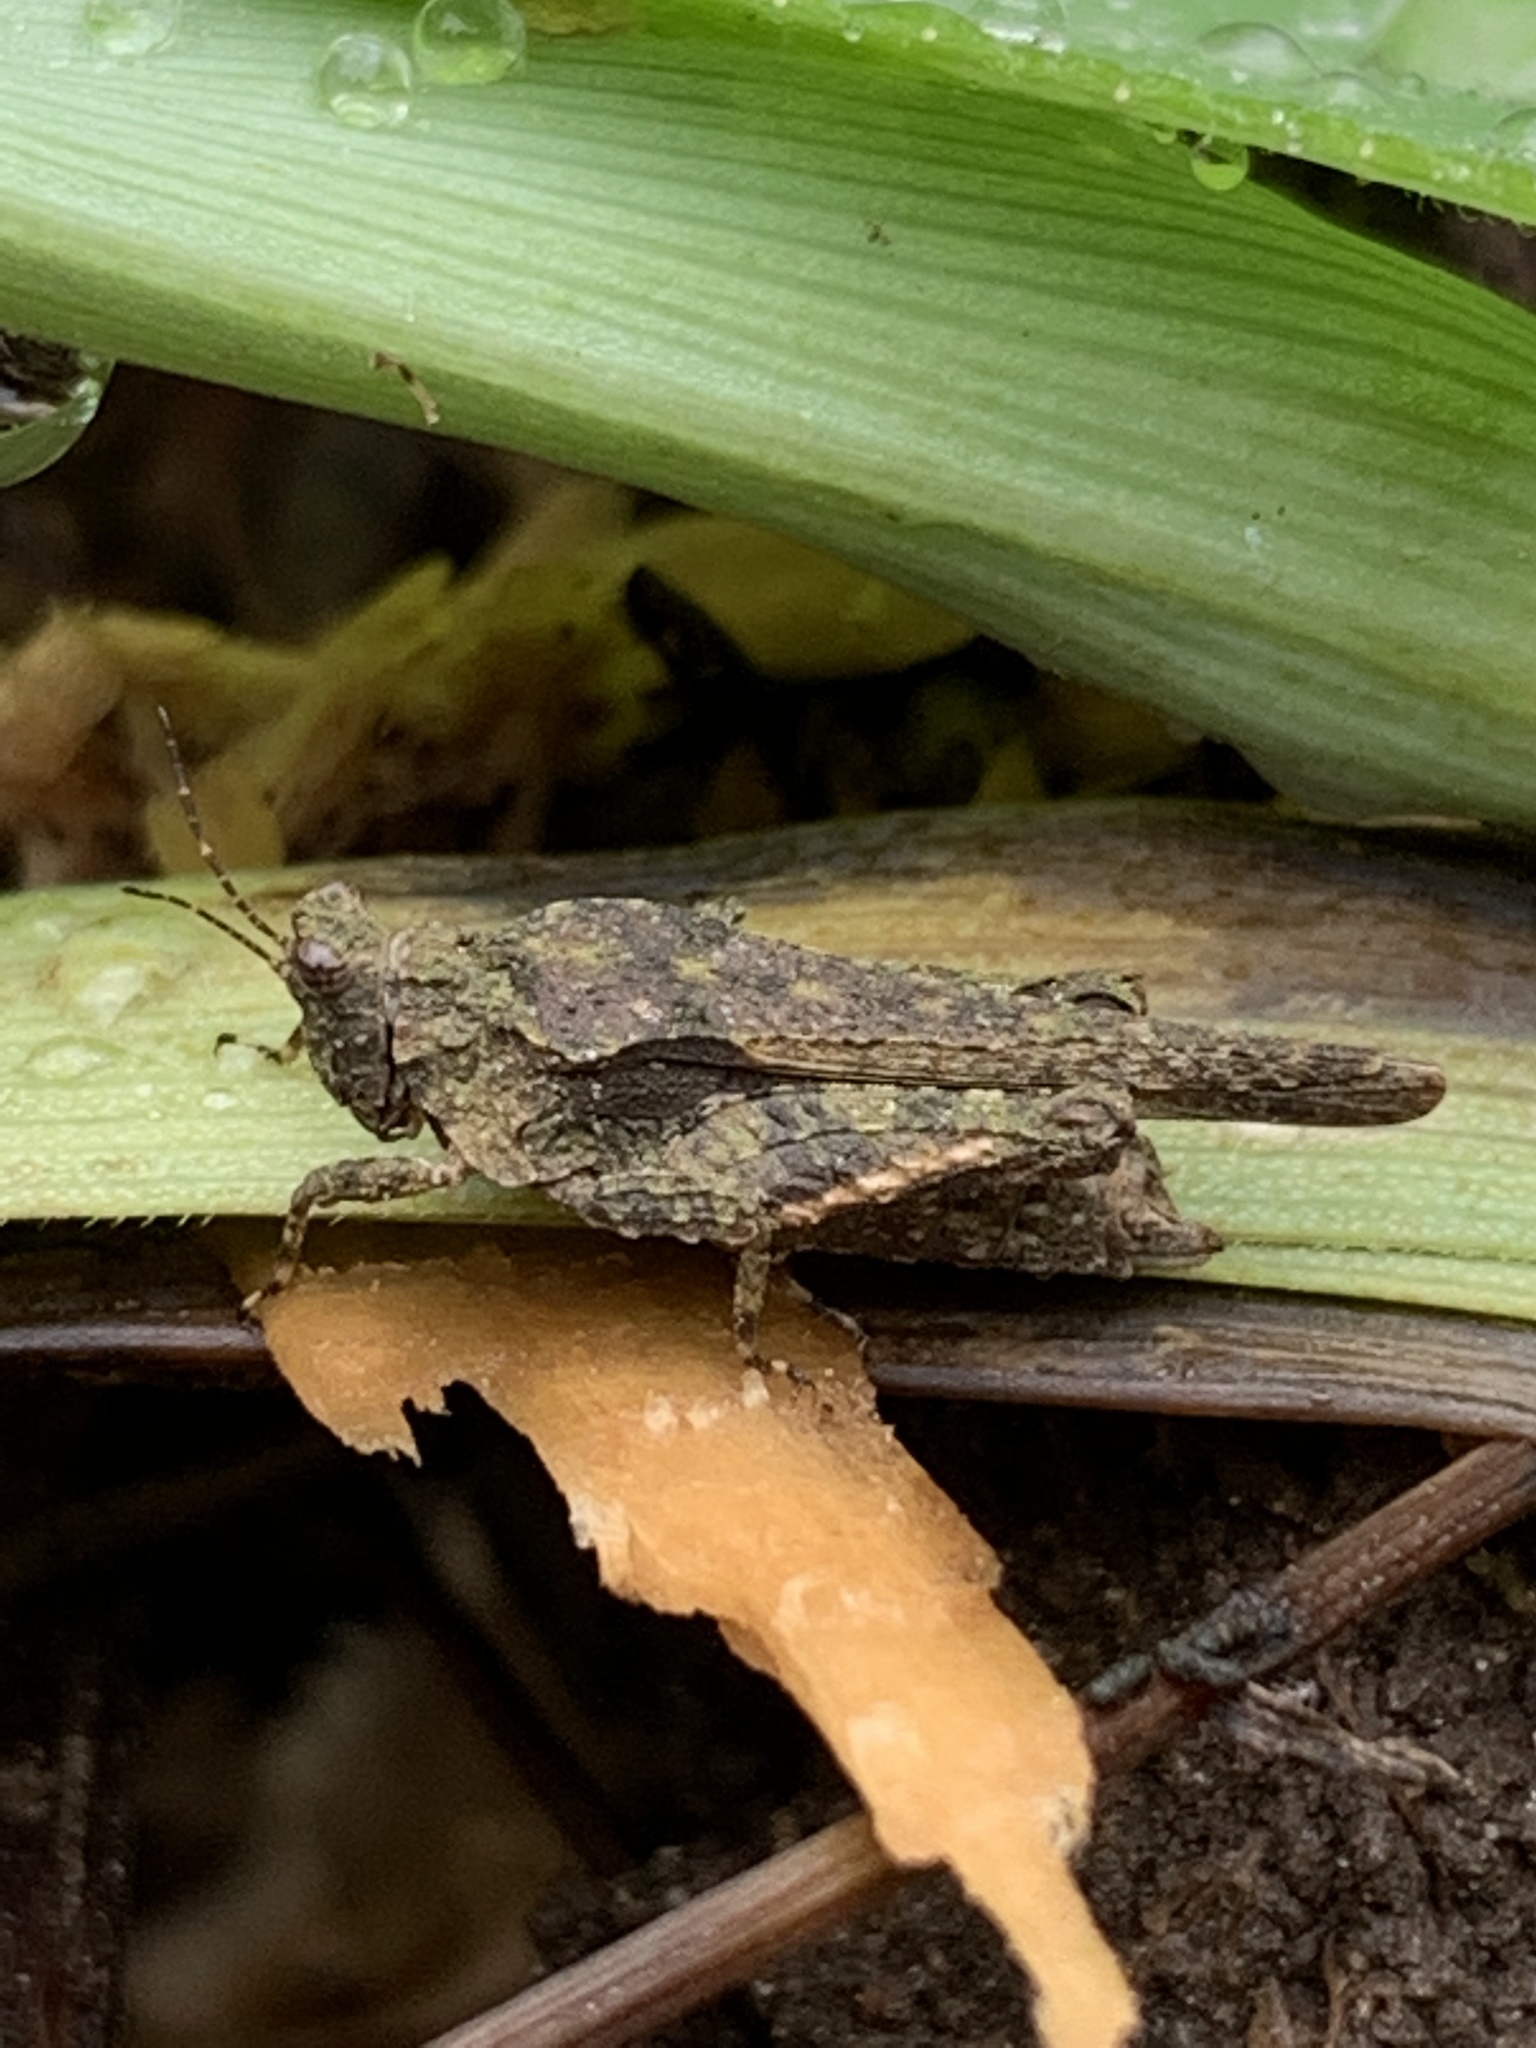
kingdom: Animalia
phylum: Arthropoda
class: Insecta
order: Orthoptera
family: Tetrigidae
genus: Tetrix
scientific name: Tetrix arenosa
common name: Ornate pygmy grasshopper
